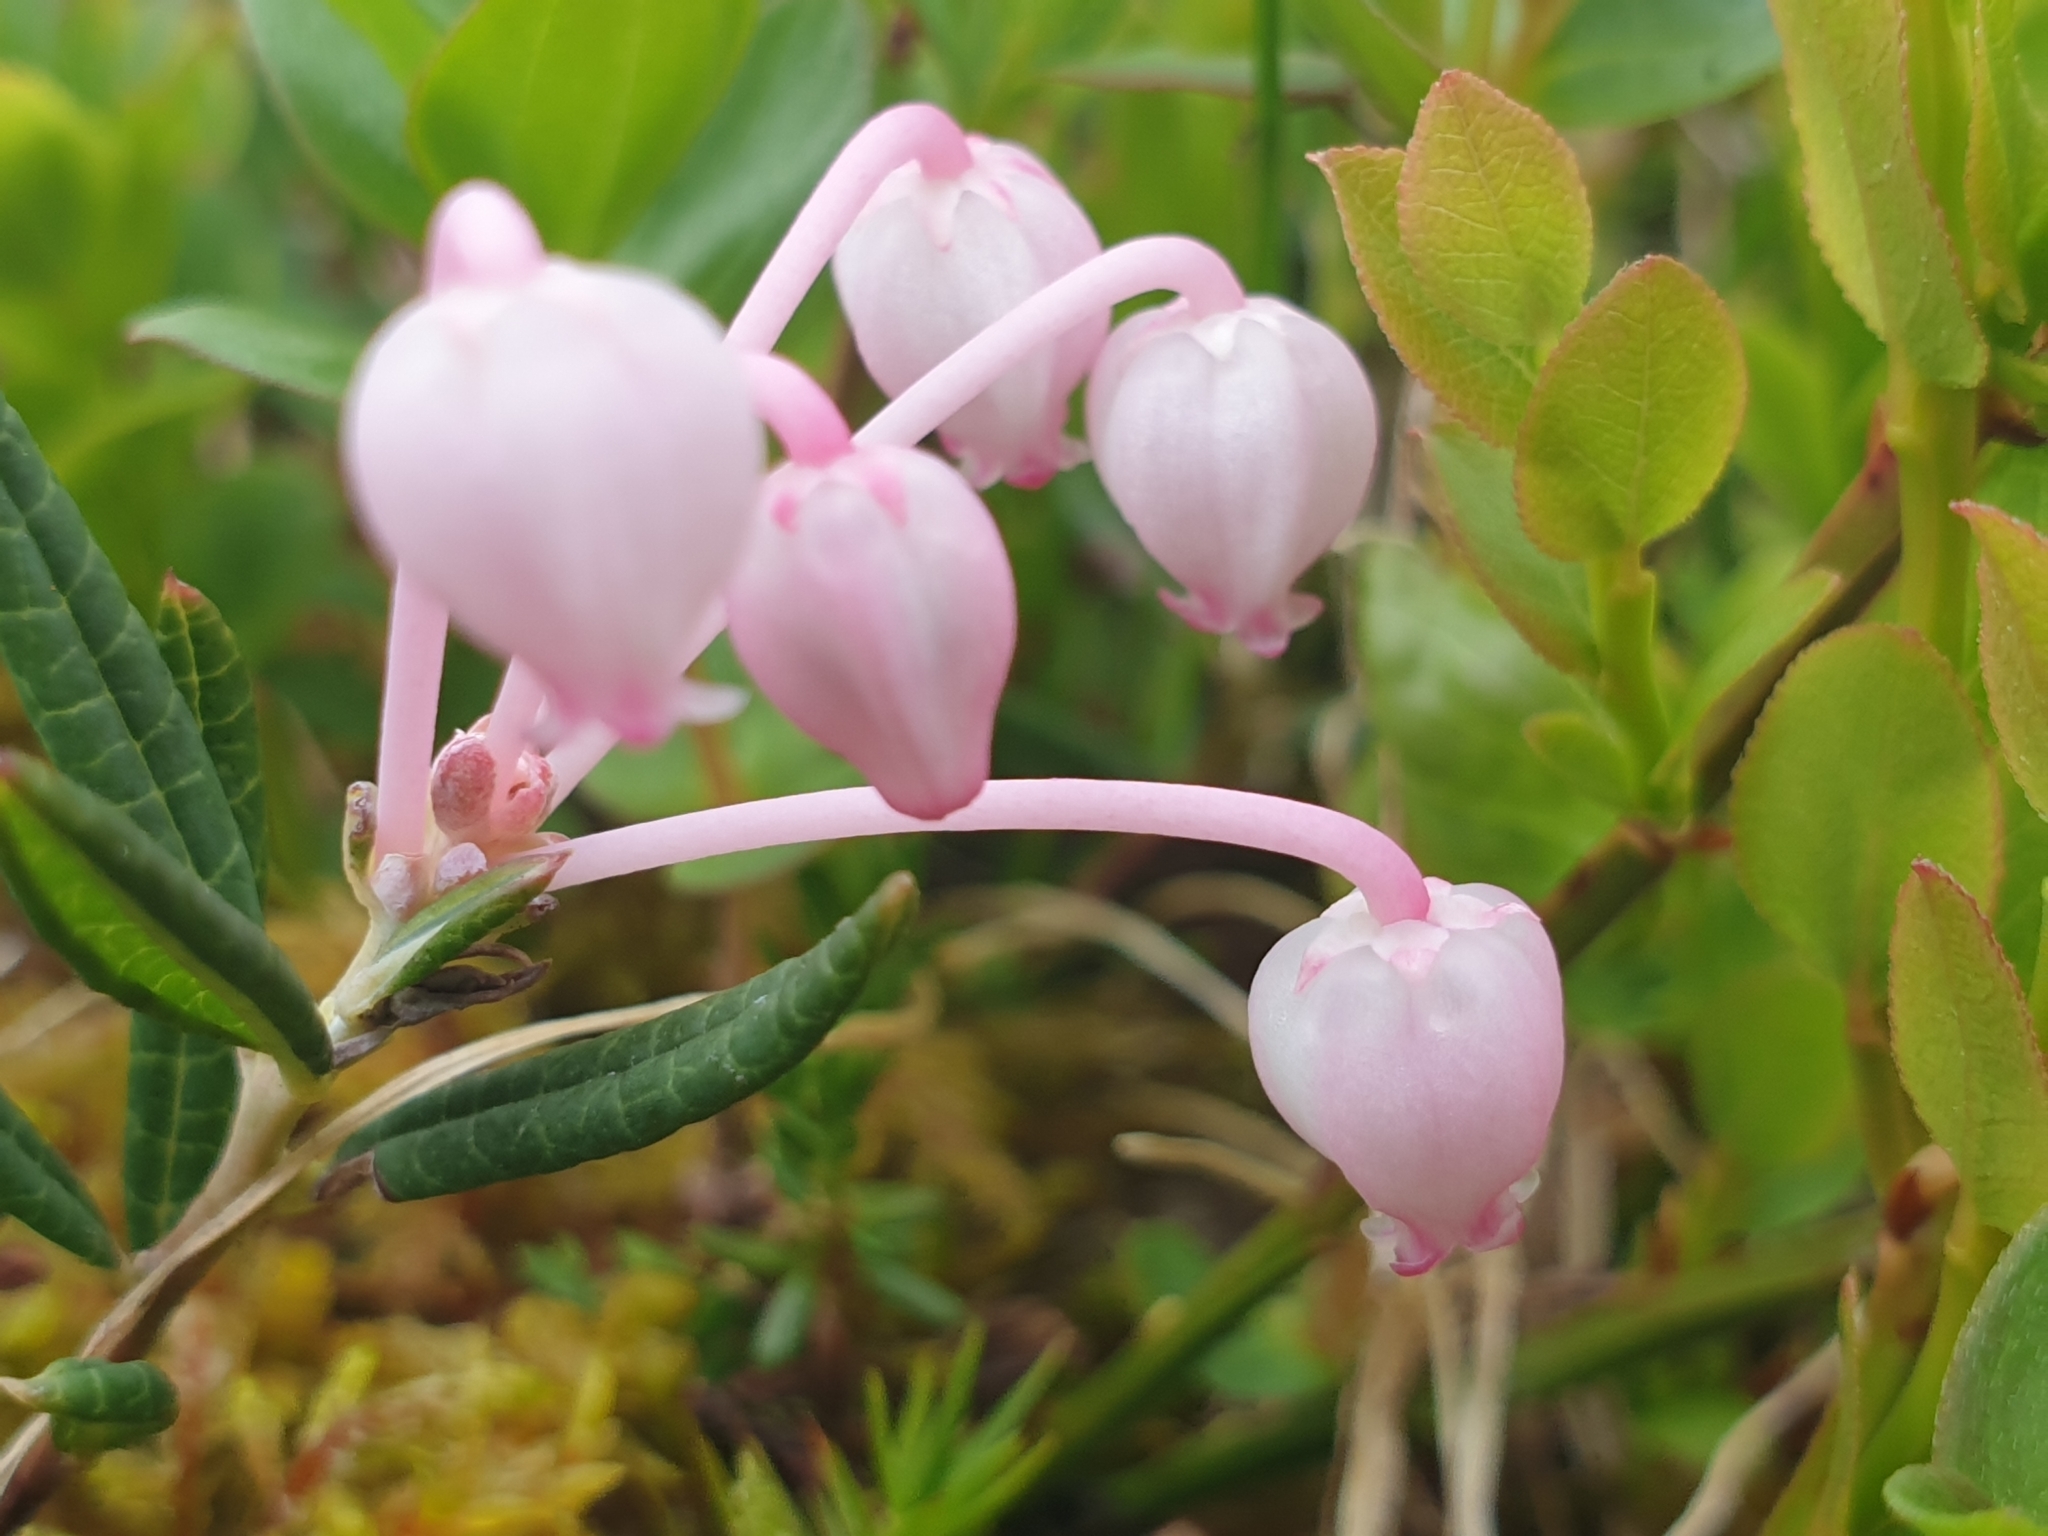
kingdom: Plantae
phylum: Tracheophyta
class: Magnoliopsida
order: Ericales
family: Ericaceae
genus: Andromeda
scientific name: Andromeda polifolia
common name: Bog-rosemary
